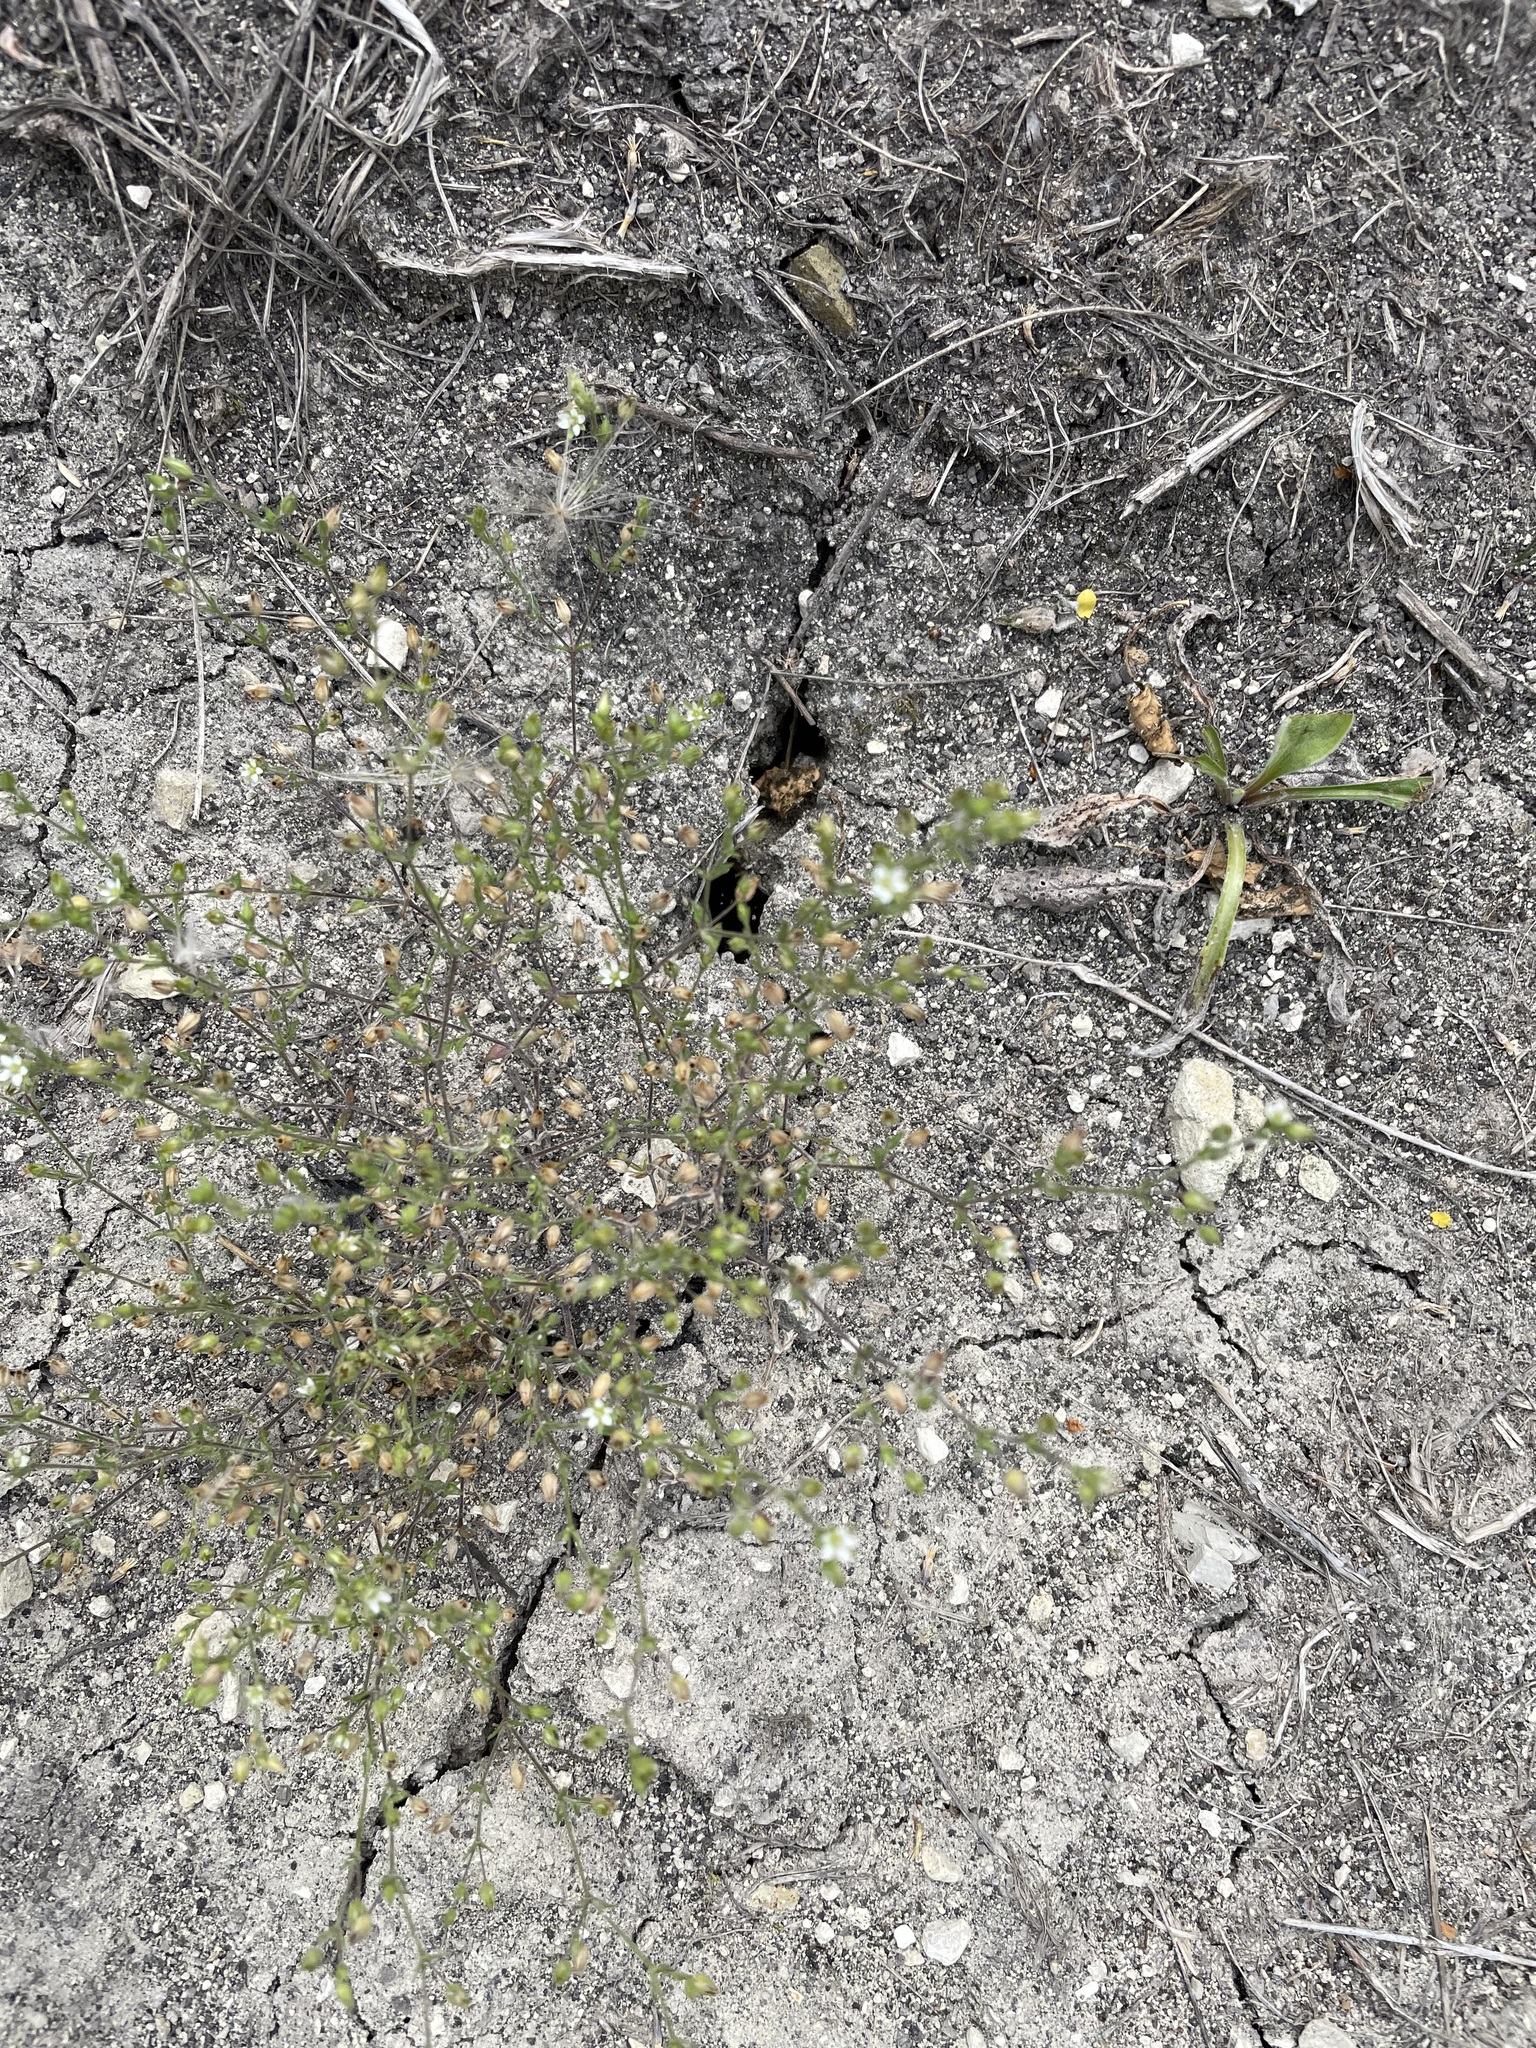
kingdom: Plantae
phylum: Tracheophyta
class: Magnoliopsida
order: Caryophyllales
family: Caryophyllaceae
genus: Arenaria
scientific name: Arenaria serpyllifolia
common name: Thyme-leaved sandwort
